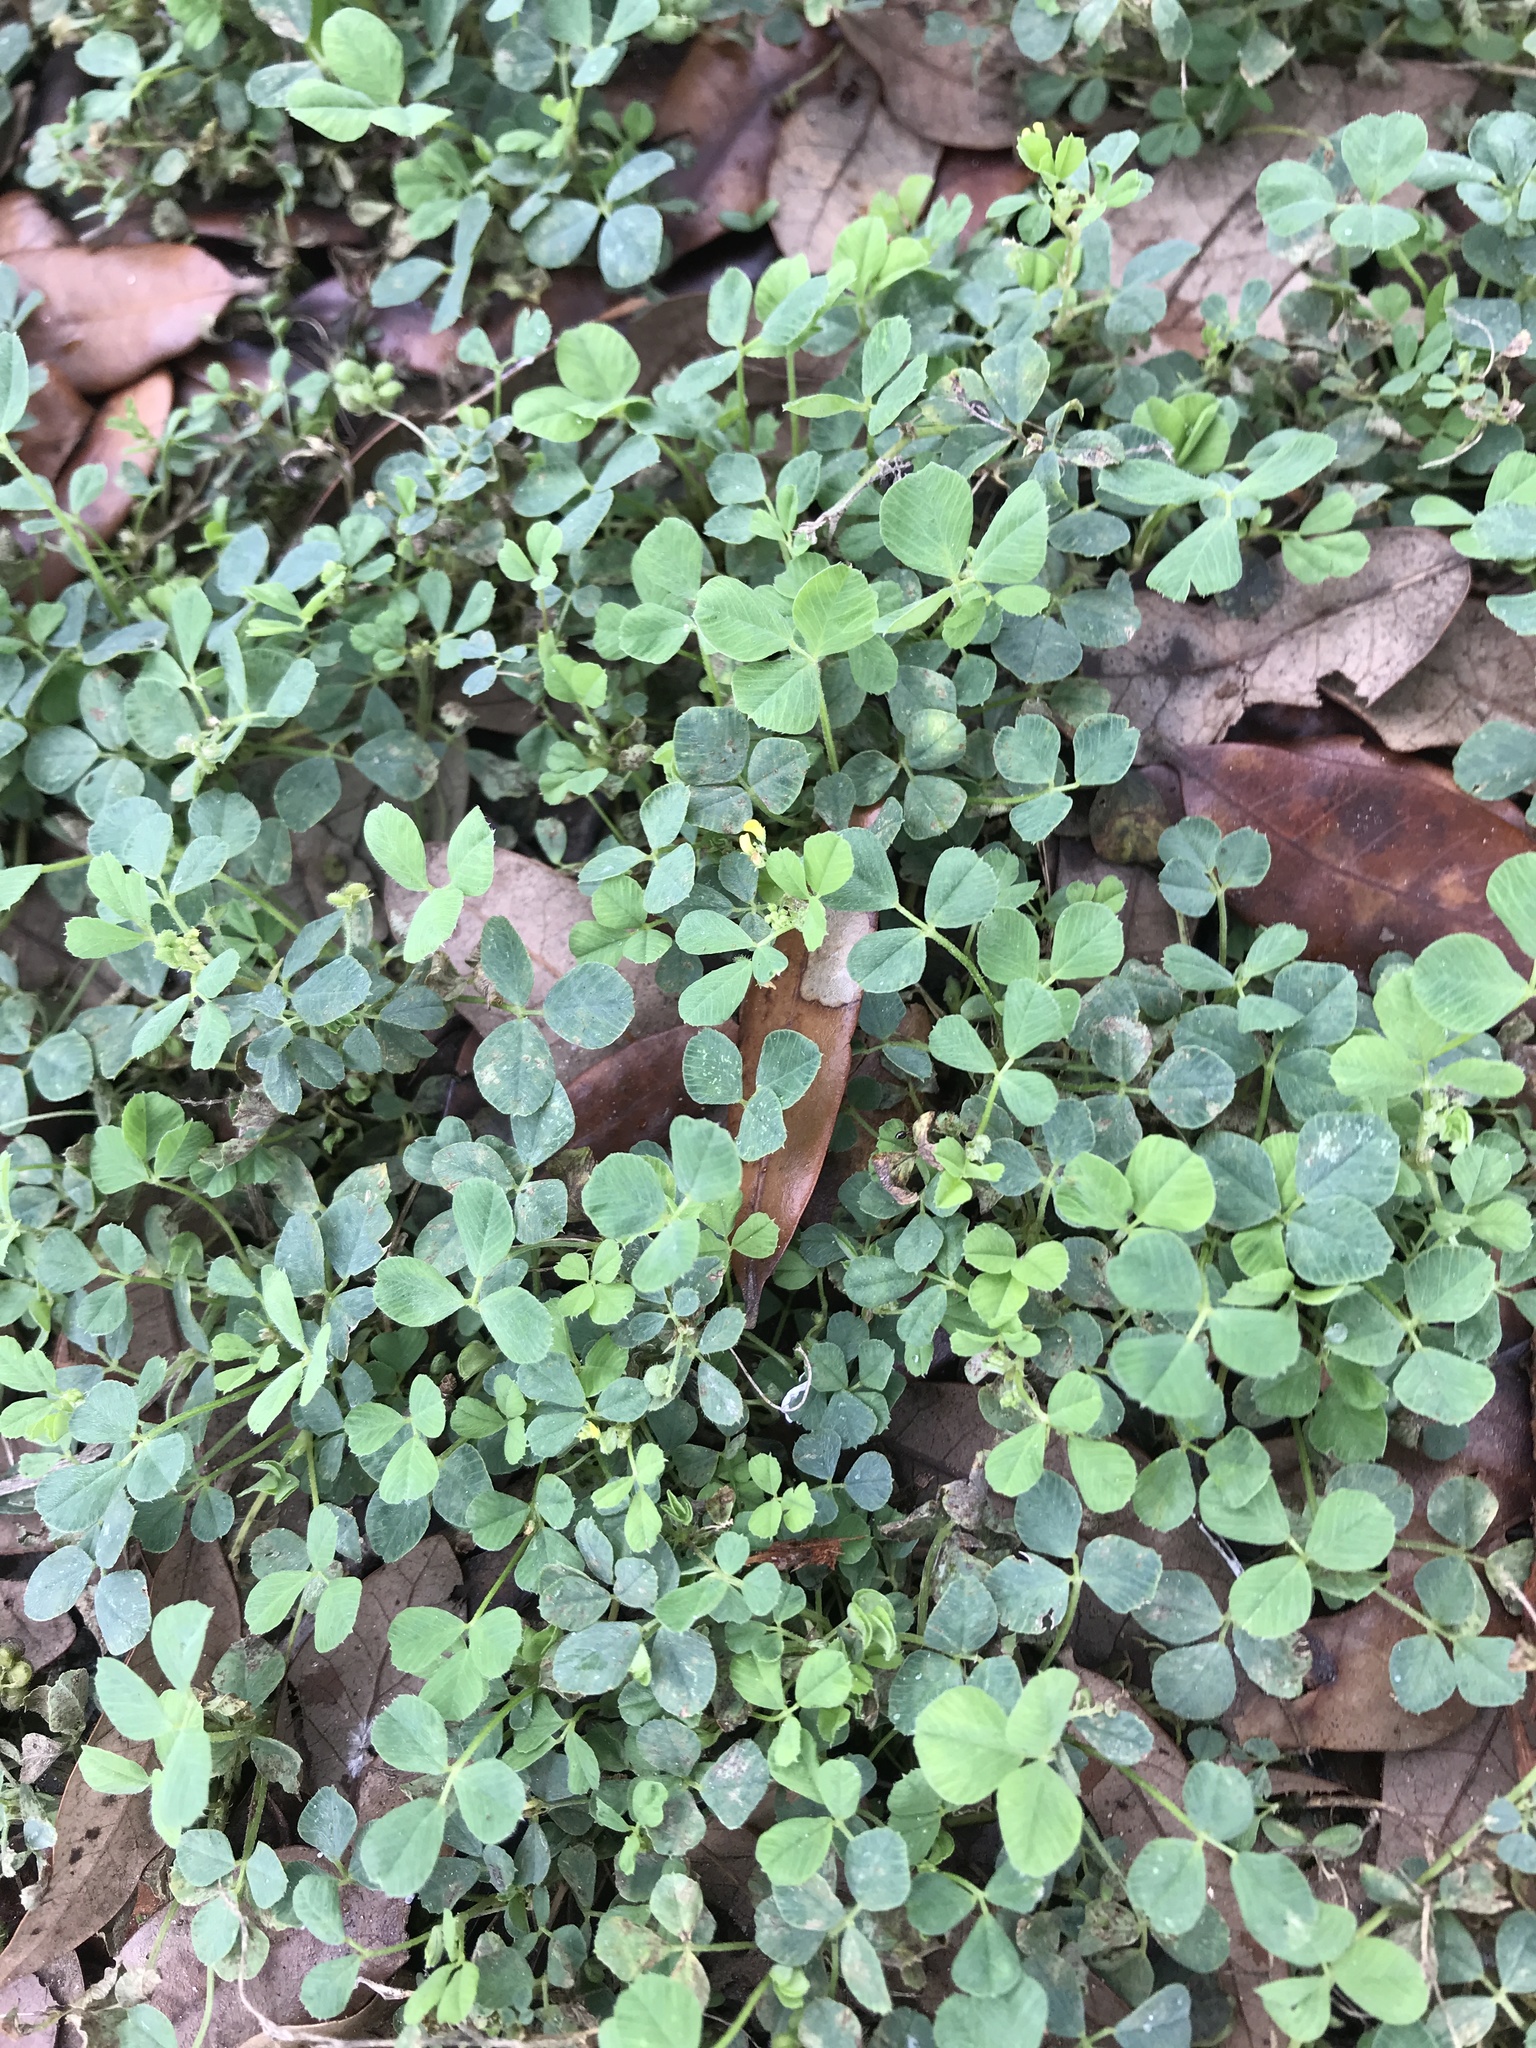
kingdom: Plantae
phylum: Tracheophyta
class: Magnoliopsida
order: Fabales
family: Fabaceae
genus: Medicago
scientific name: Medicago lupulina
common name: Black medick
